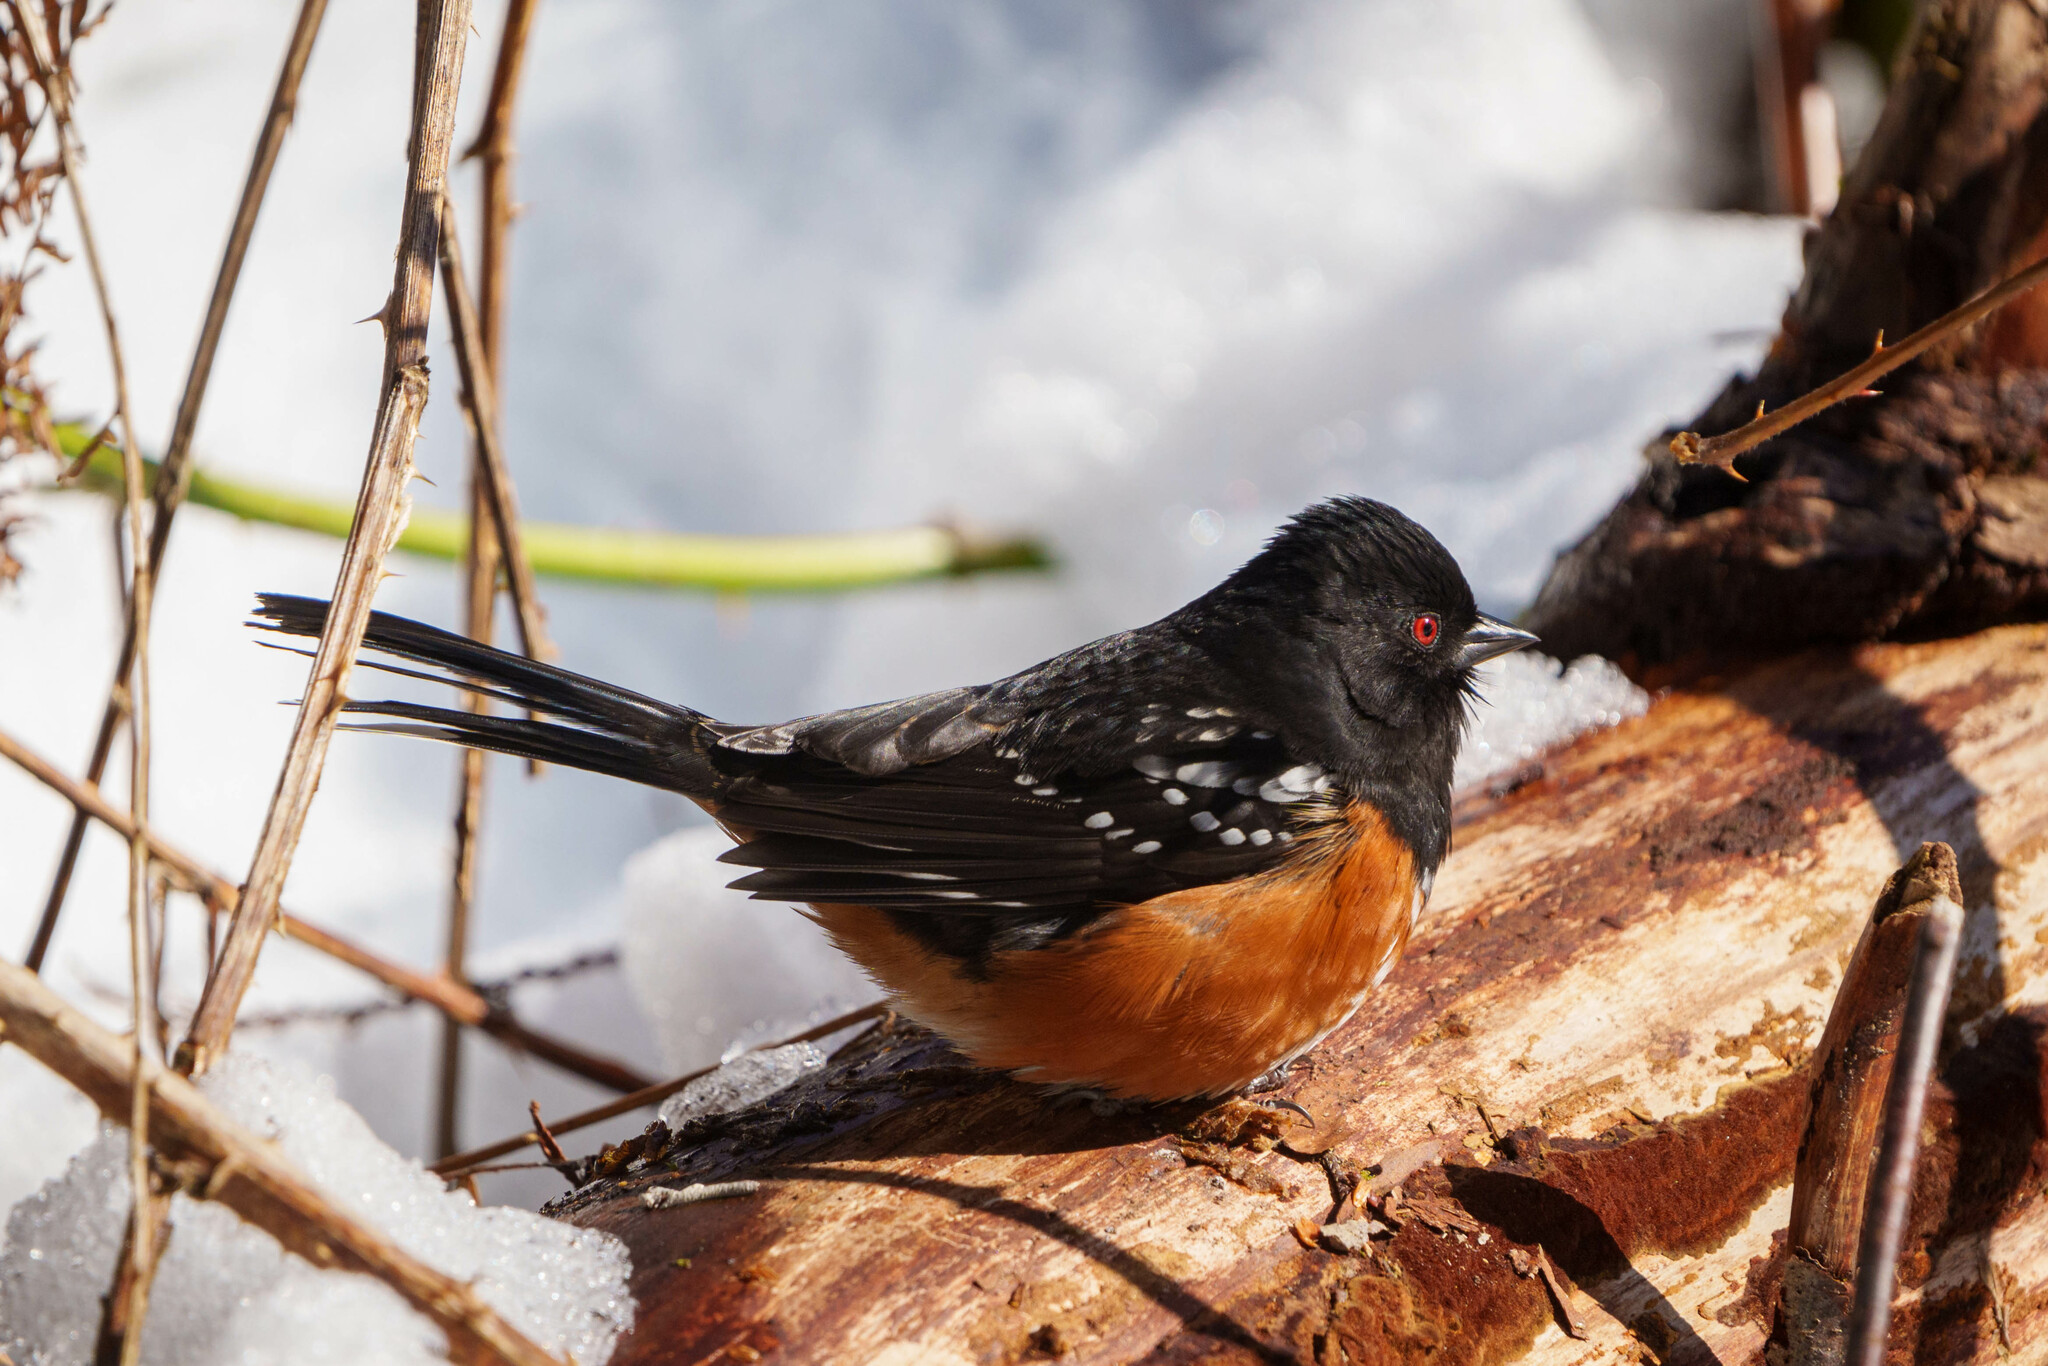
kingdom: Animalia
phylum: Chordata
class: Aves
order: Passeriformes
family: Passerellidae
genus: Pipilo
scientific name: Pipilo maculatus
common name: Spotted towhee
